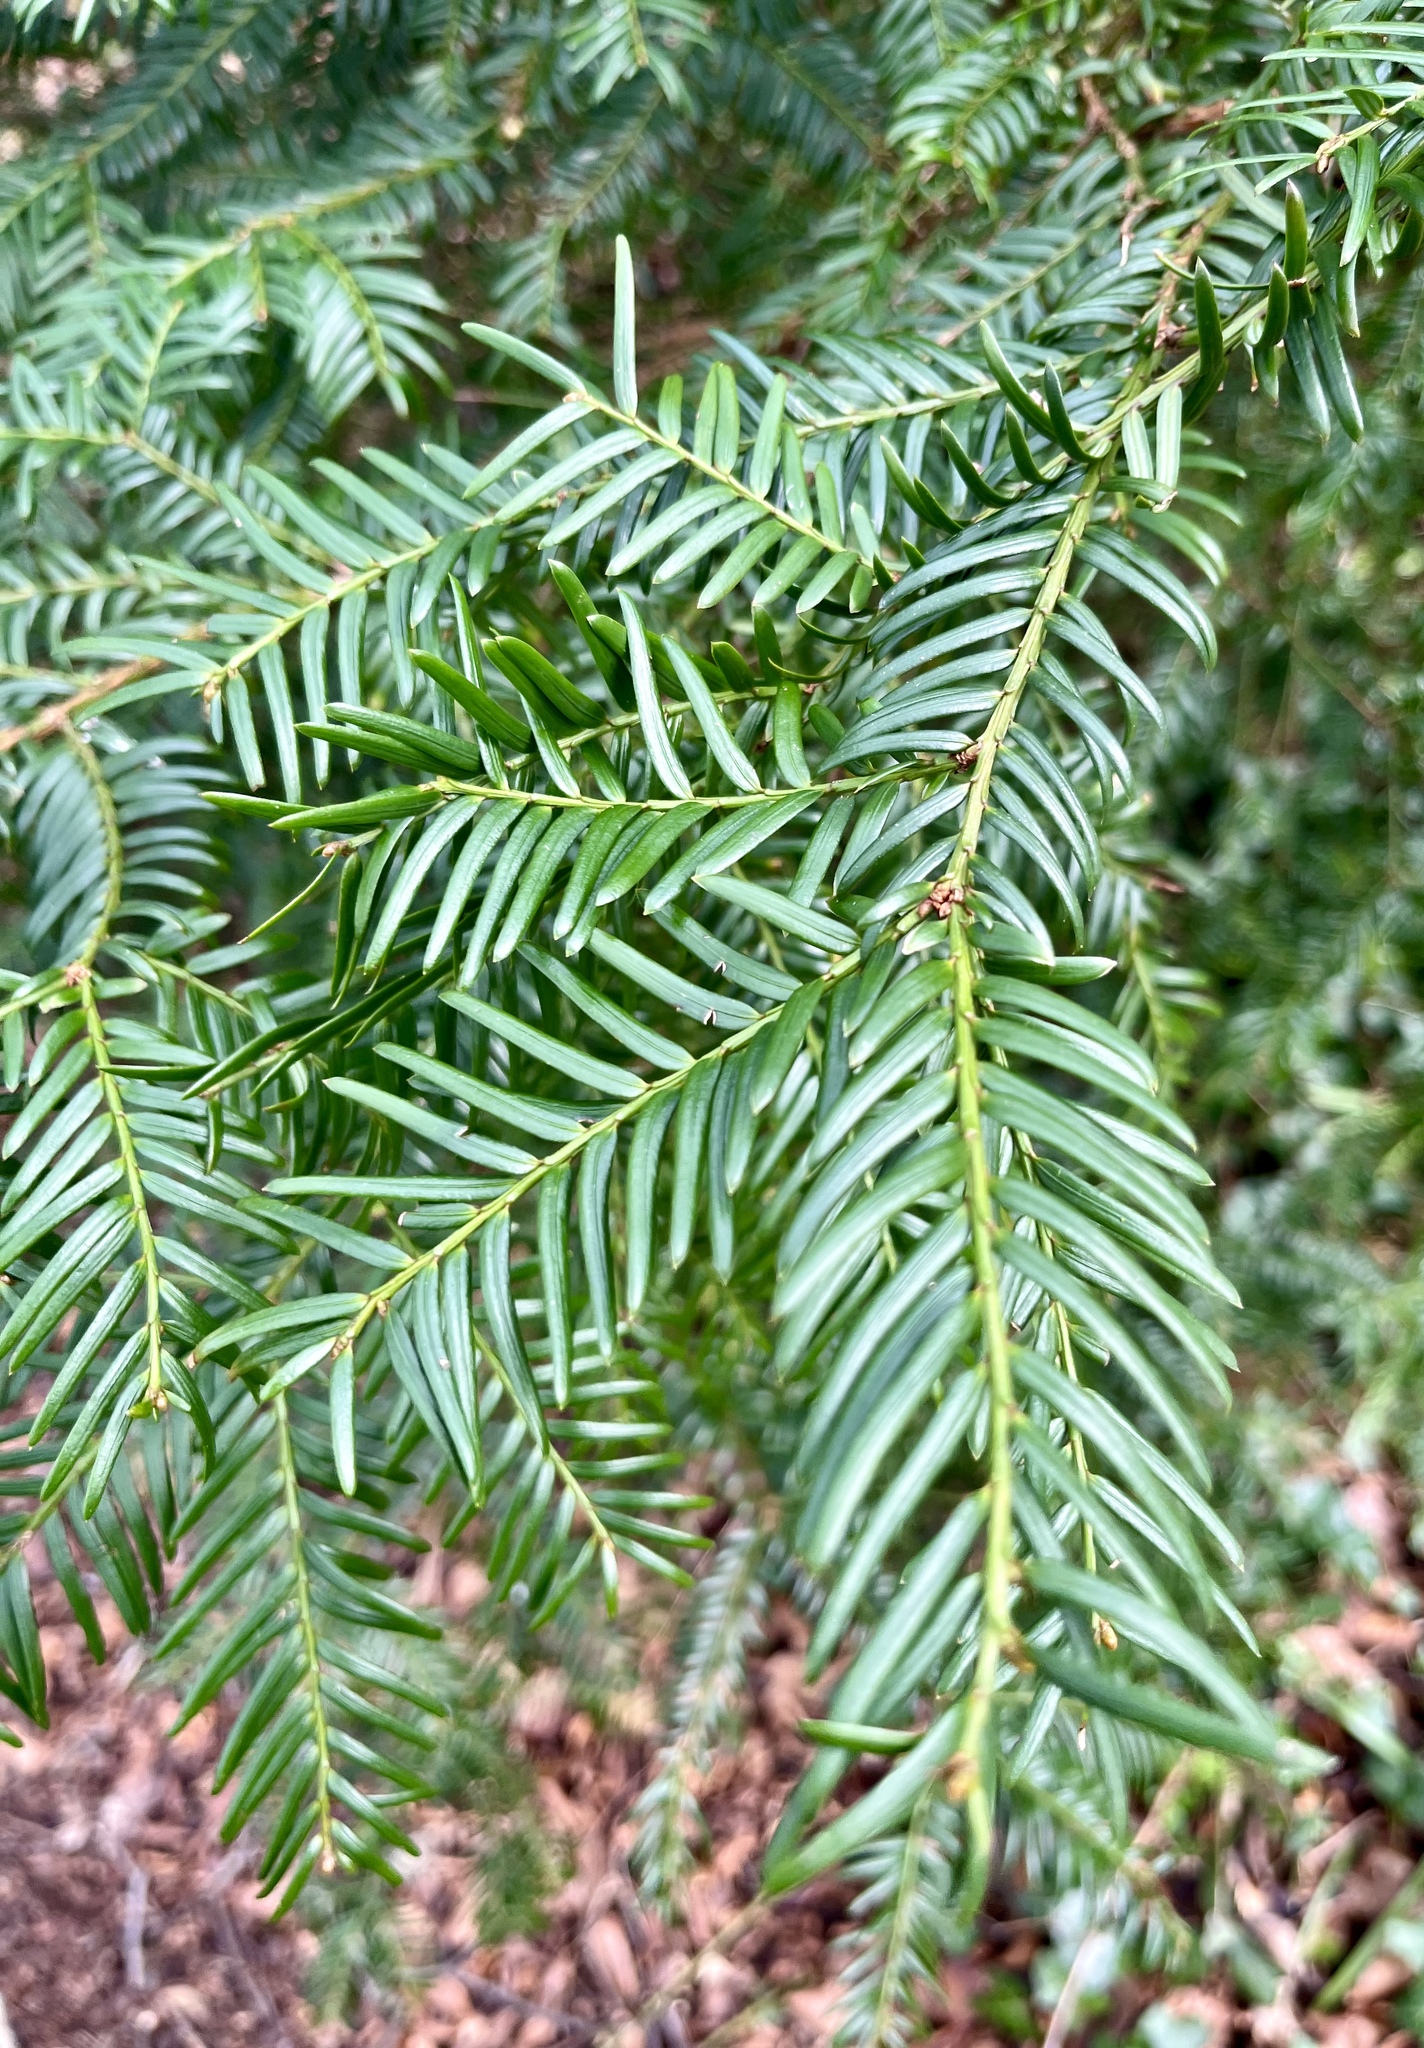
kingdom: Plantae
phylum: Tracheophyta
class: Pinopsida
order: Pinales
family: Taxaceae
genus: Taxus
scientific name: Taxus baccata
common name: Yew
